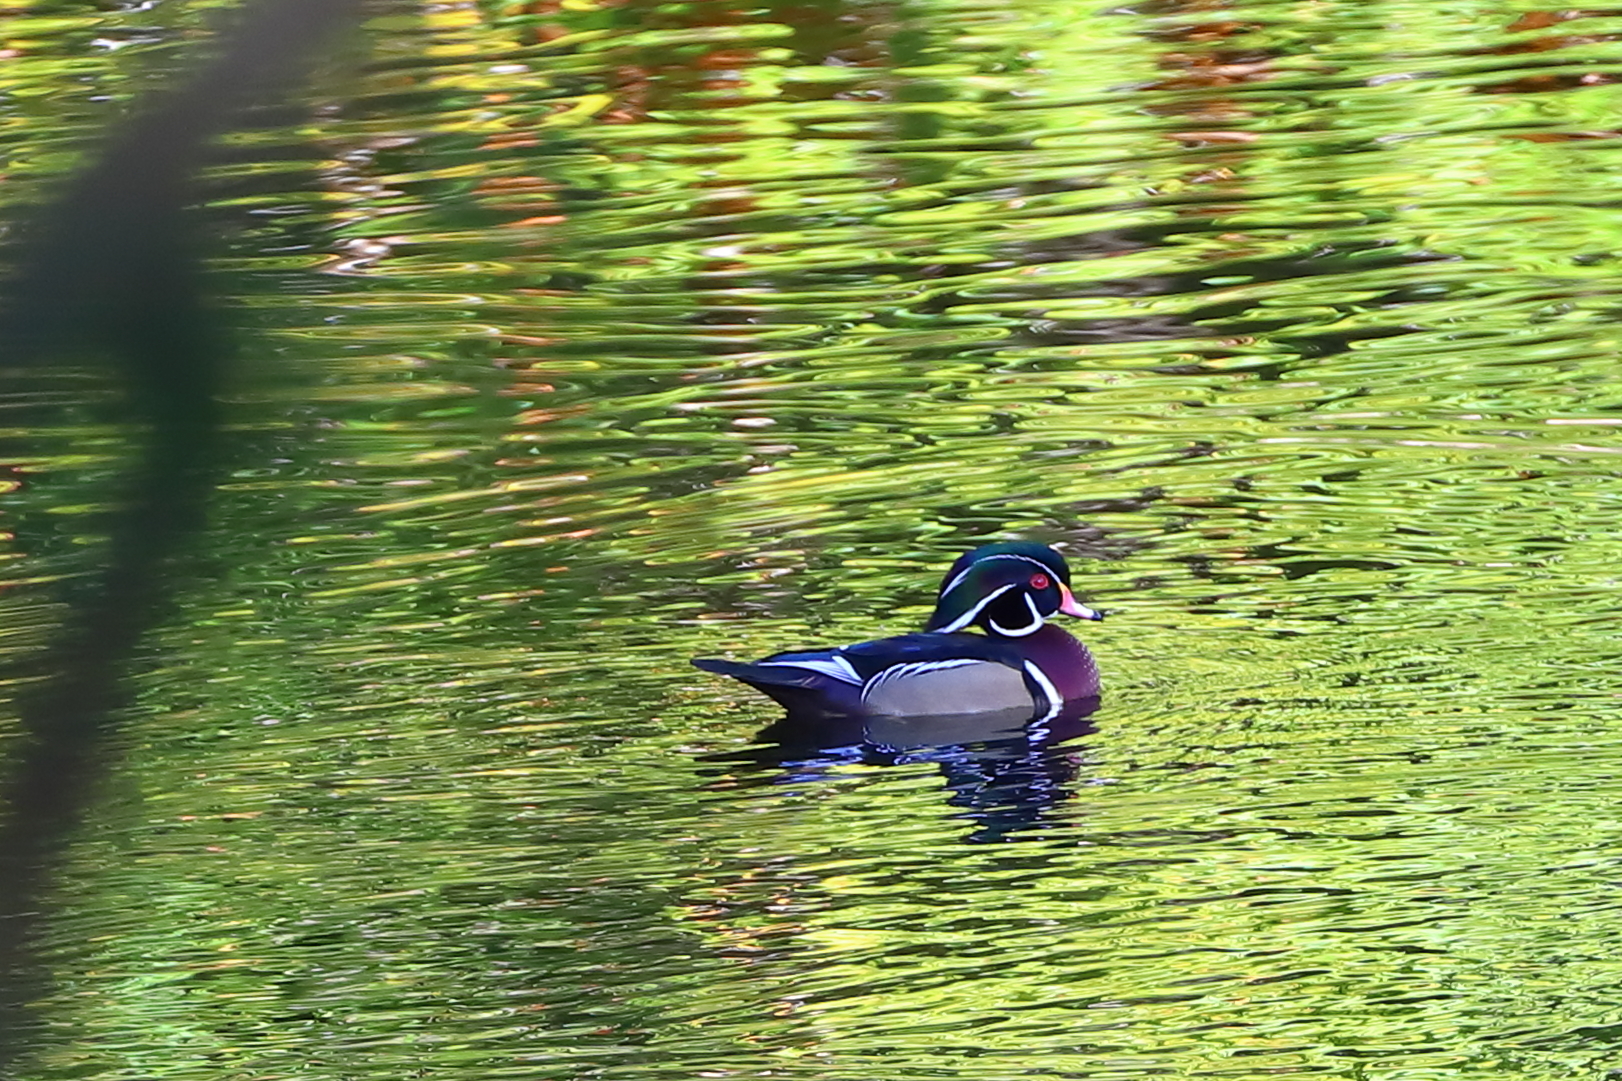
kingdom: Animalia
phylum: Chordata
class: Aves
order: Anseriformes
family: Anatidae
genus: Aix
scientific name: Aix sponsa
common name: Wood duck
